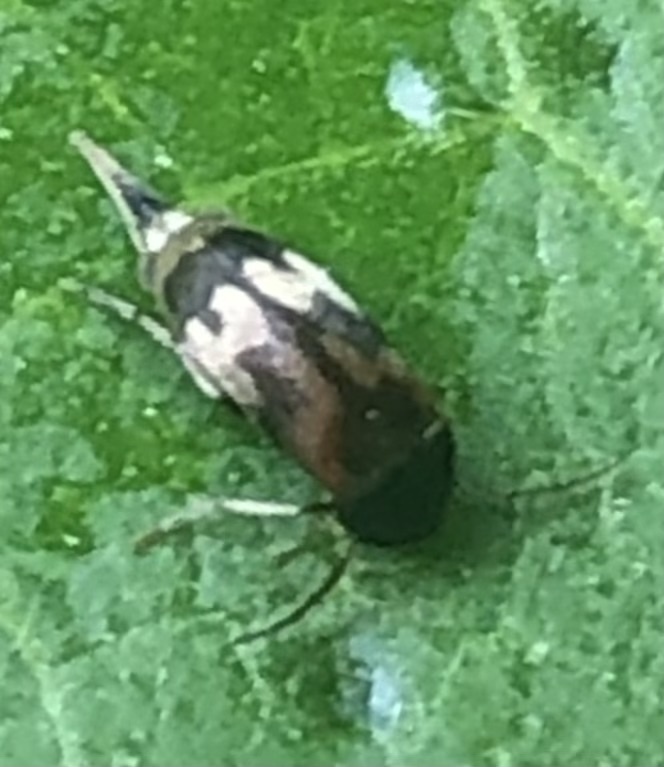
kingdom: Animalia
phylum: Arthropoda
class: Insecta
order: Coleoptera
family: Mordellidae
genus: Falsomordellistena
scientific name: Falsomordellistena bihamata
